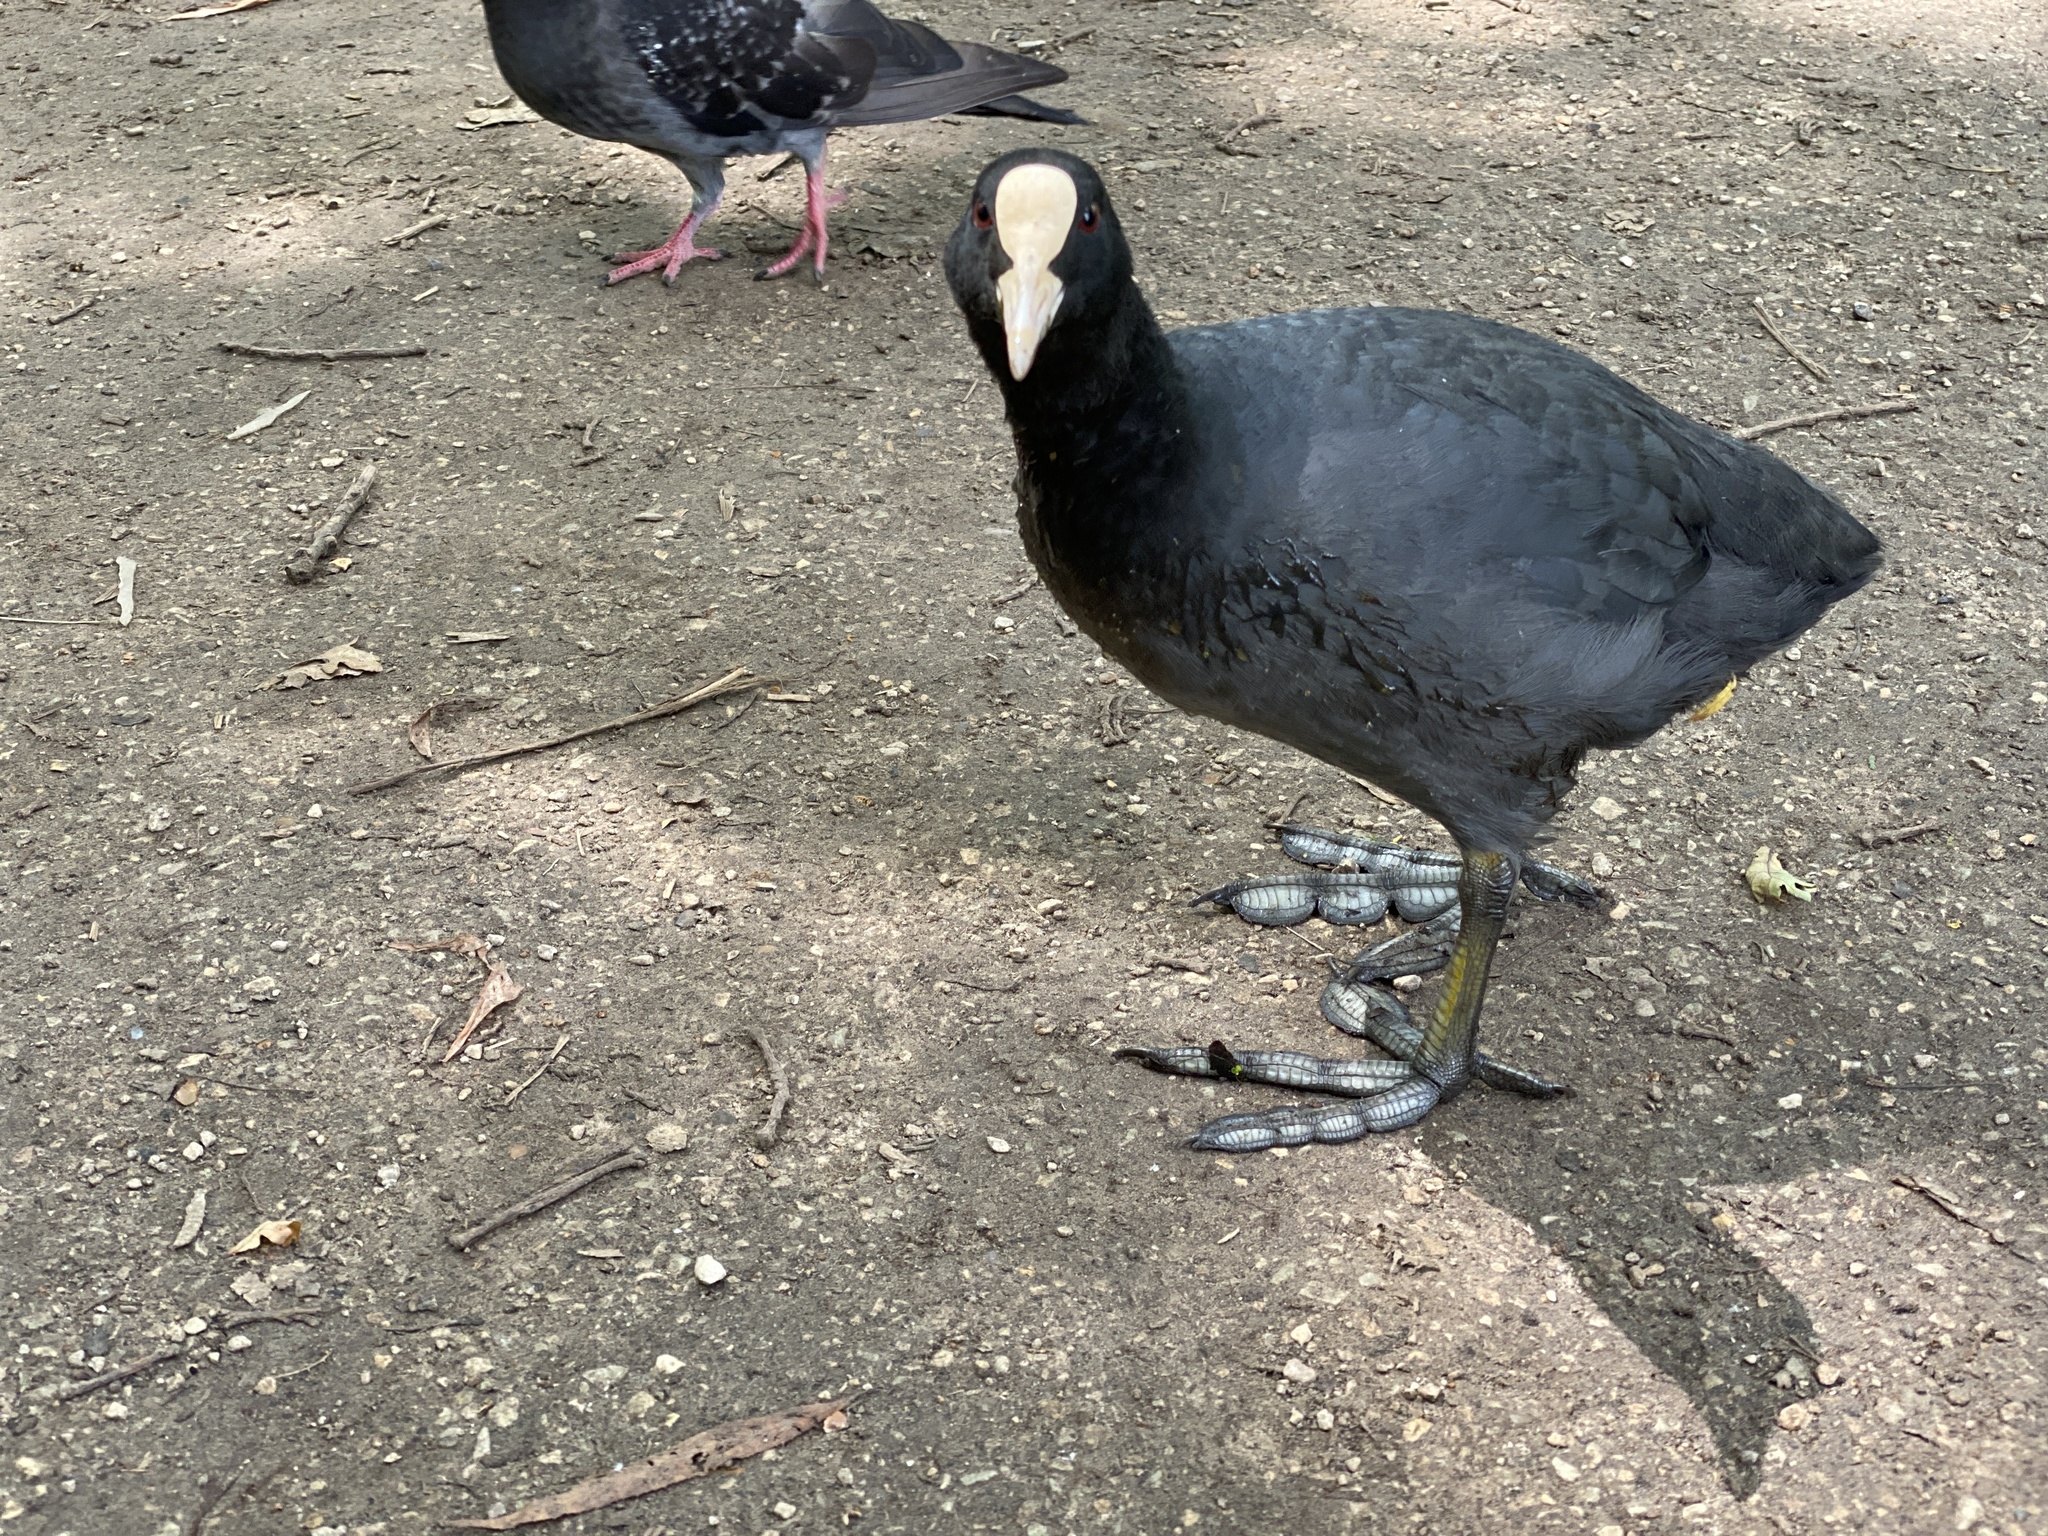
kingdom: Animalia
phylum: Chordata
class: Aves
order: Gruiformes
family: Rallidae
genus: Fulica
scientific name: Fulica atra
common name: Eurasian coot
